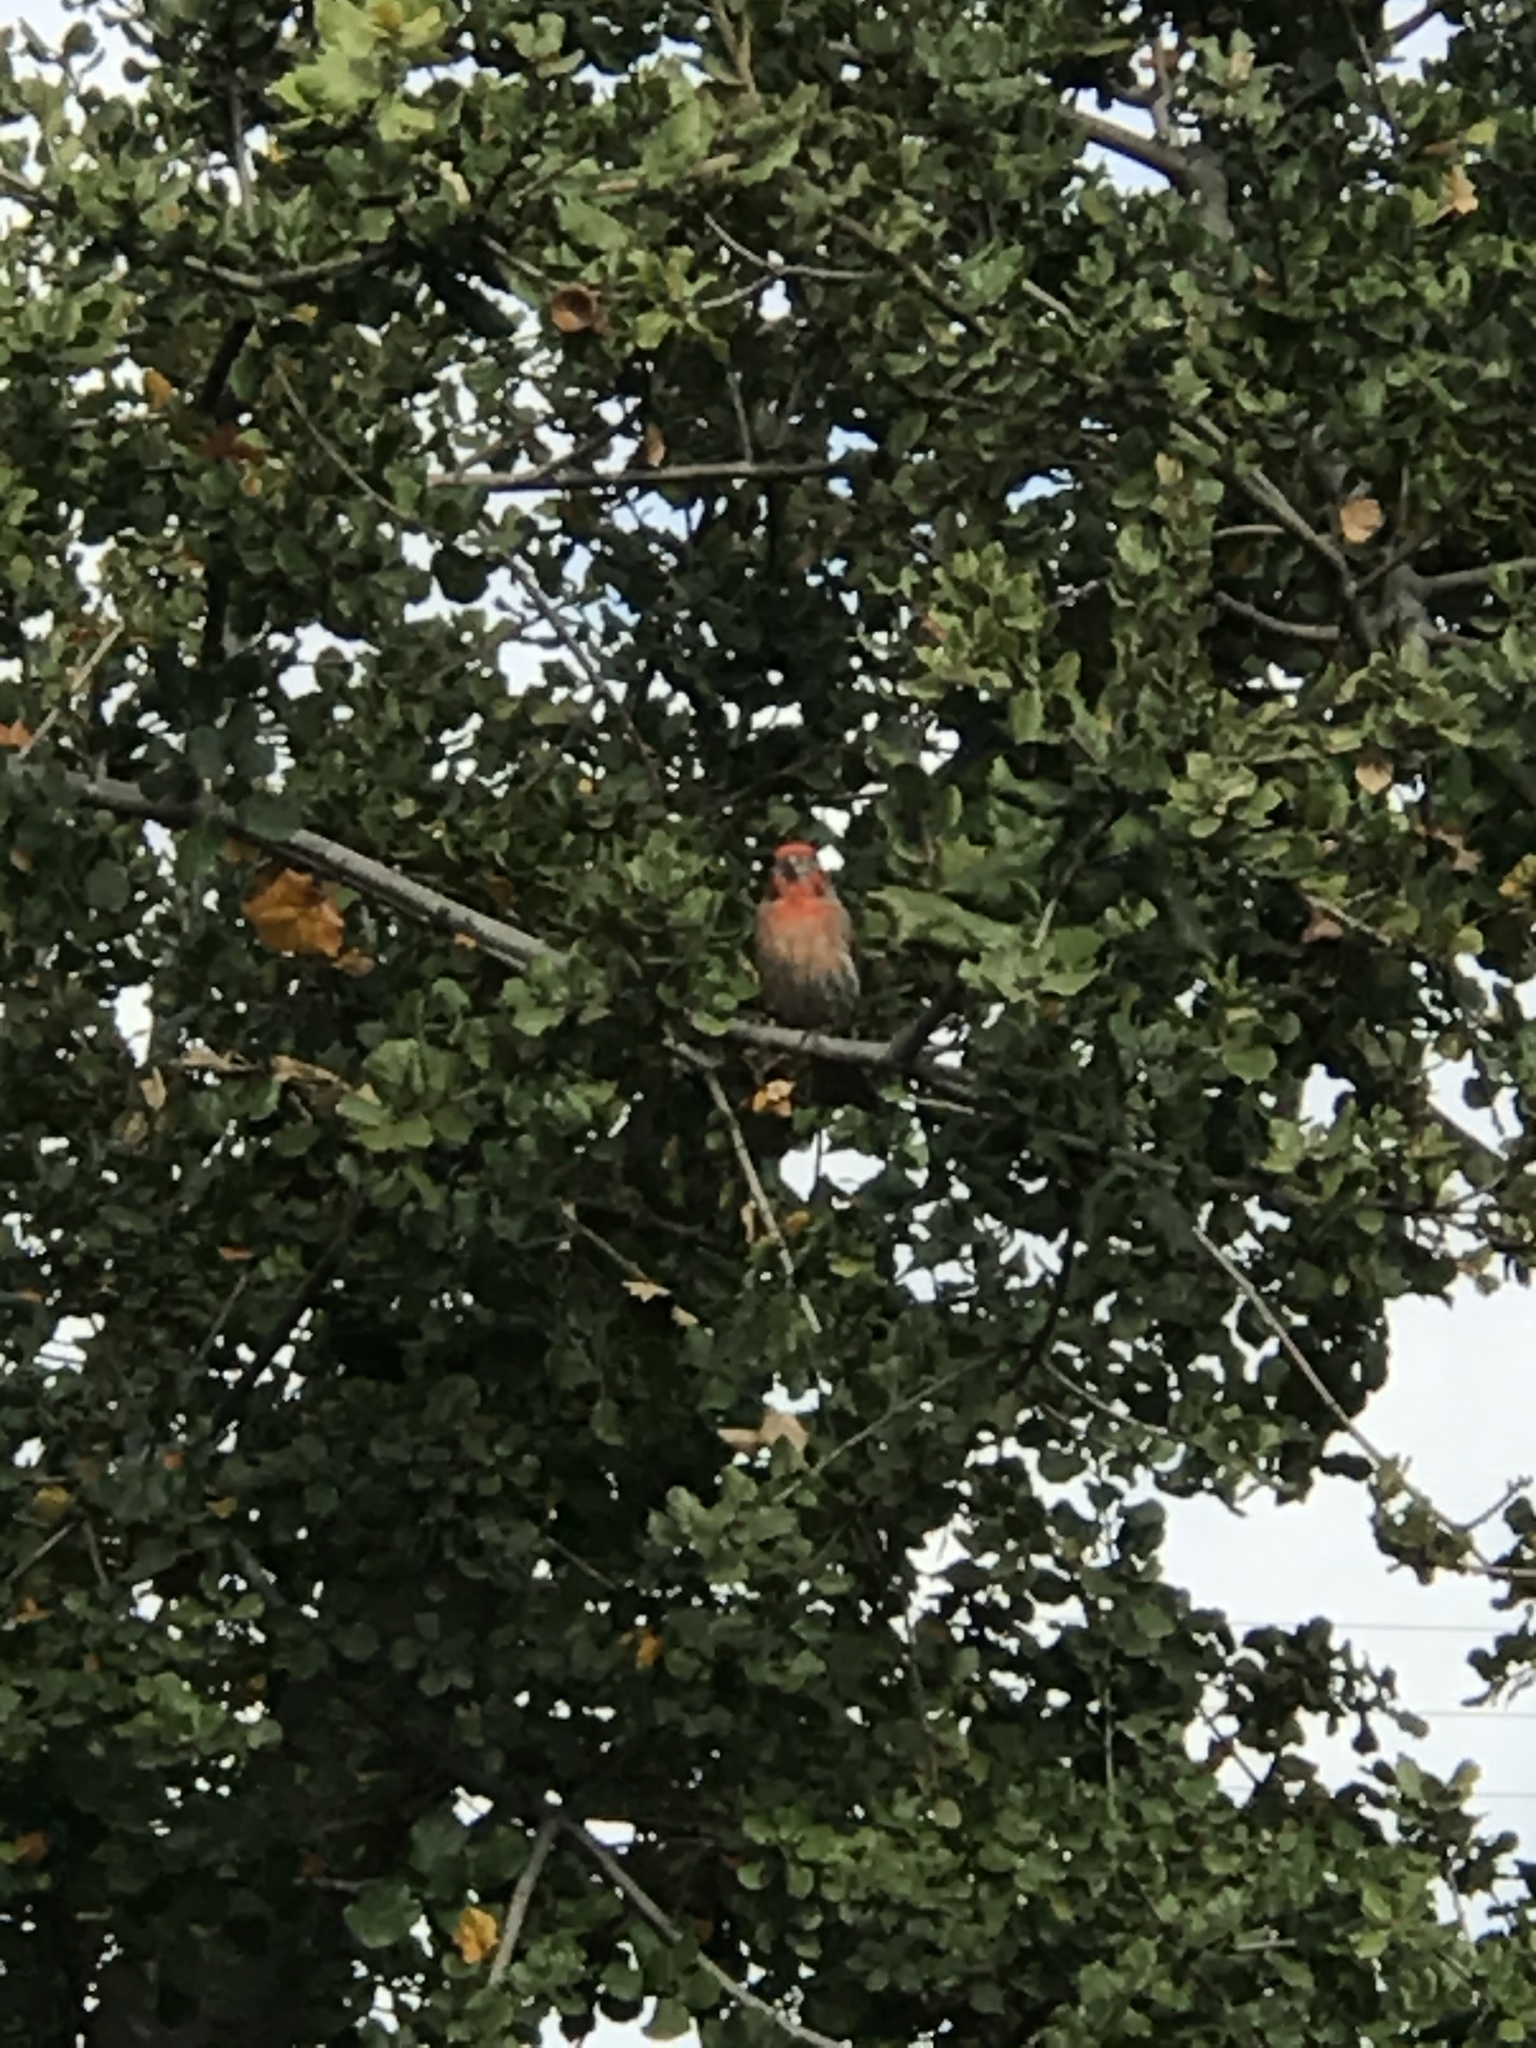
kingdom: Animalia
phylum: Chordata
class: Aves
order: Passeriformes
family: Fringillidae
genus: Haemorhous
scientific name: Haemorhous mexicanus
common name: House finch
